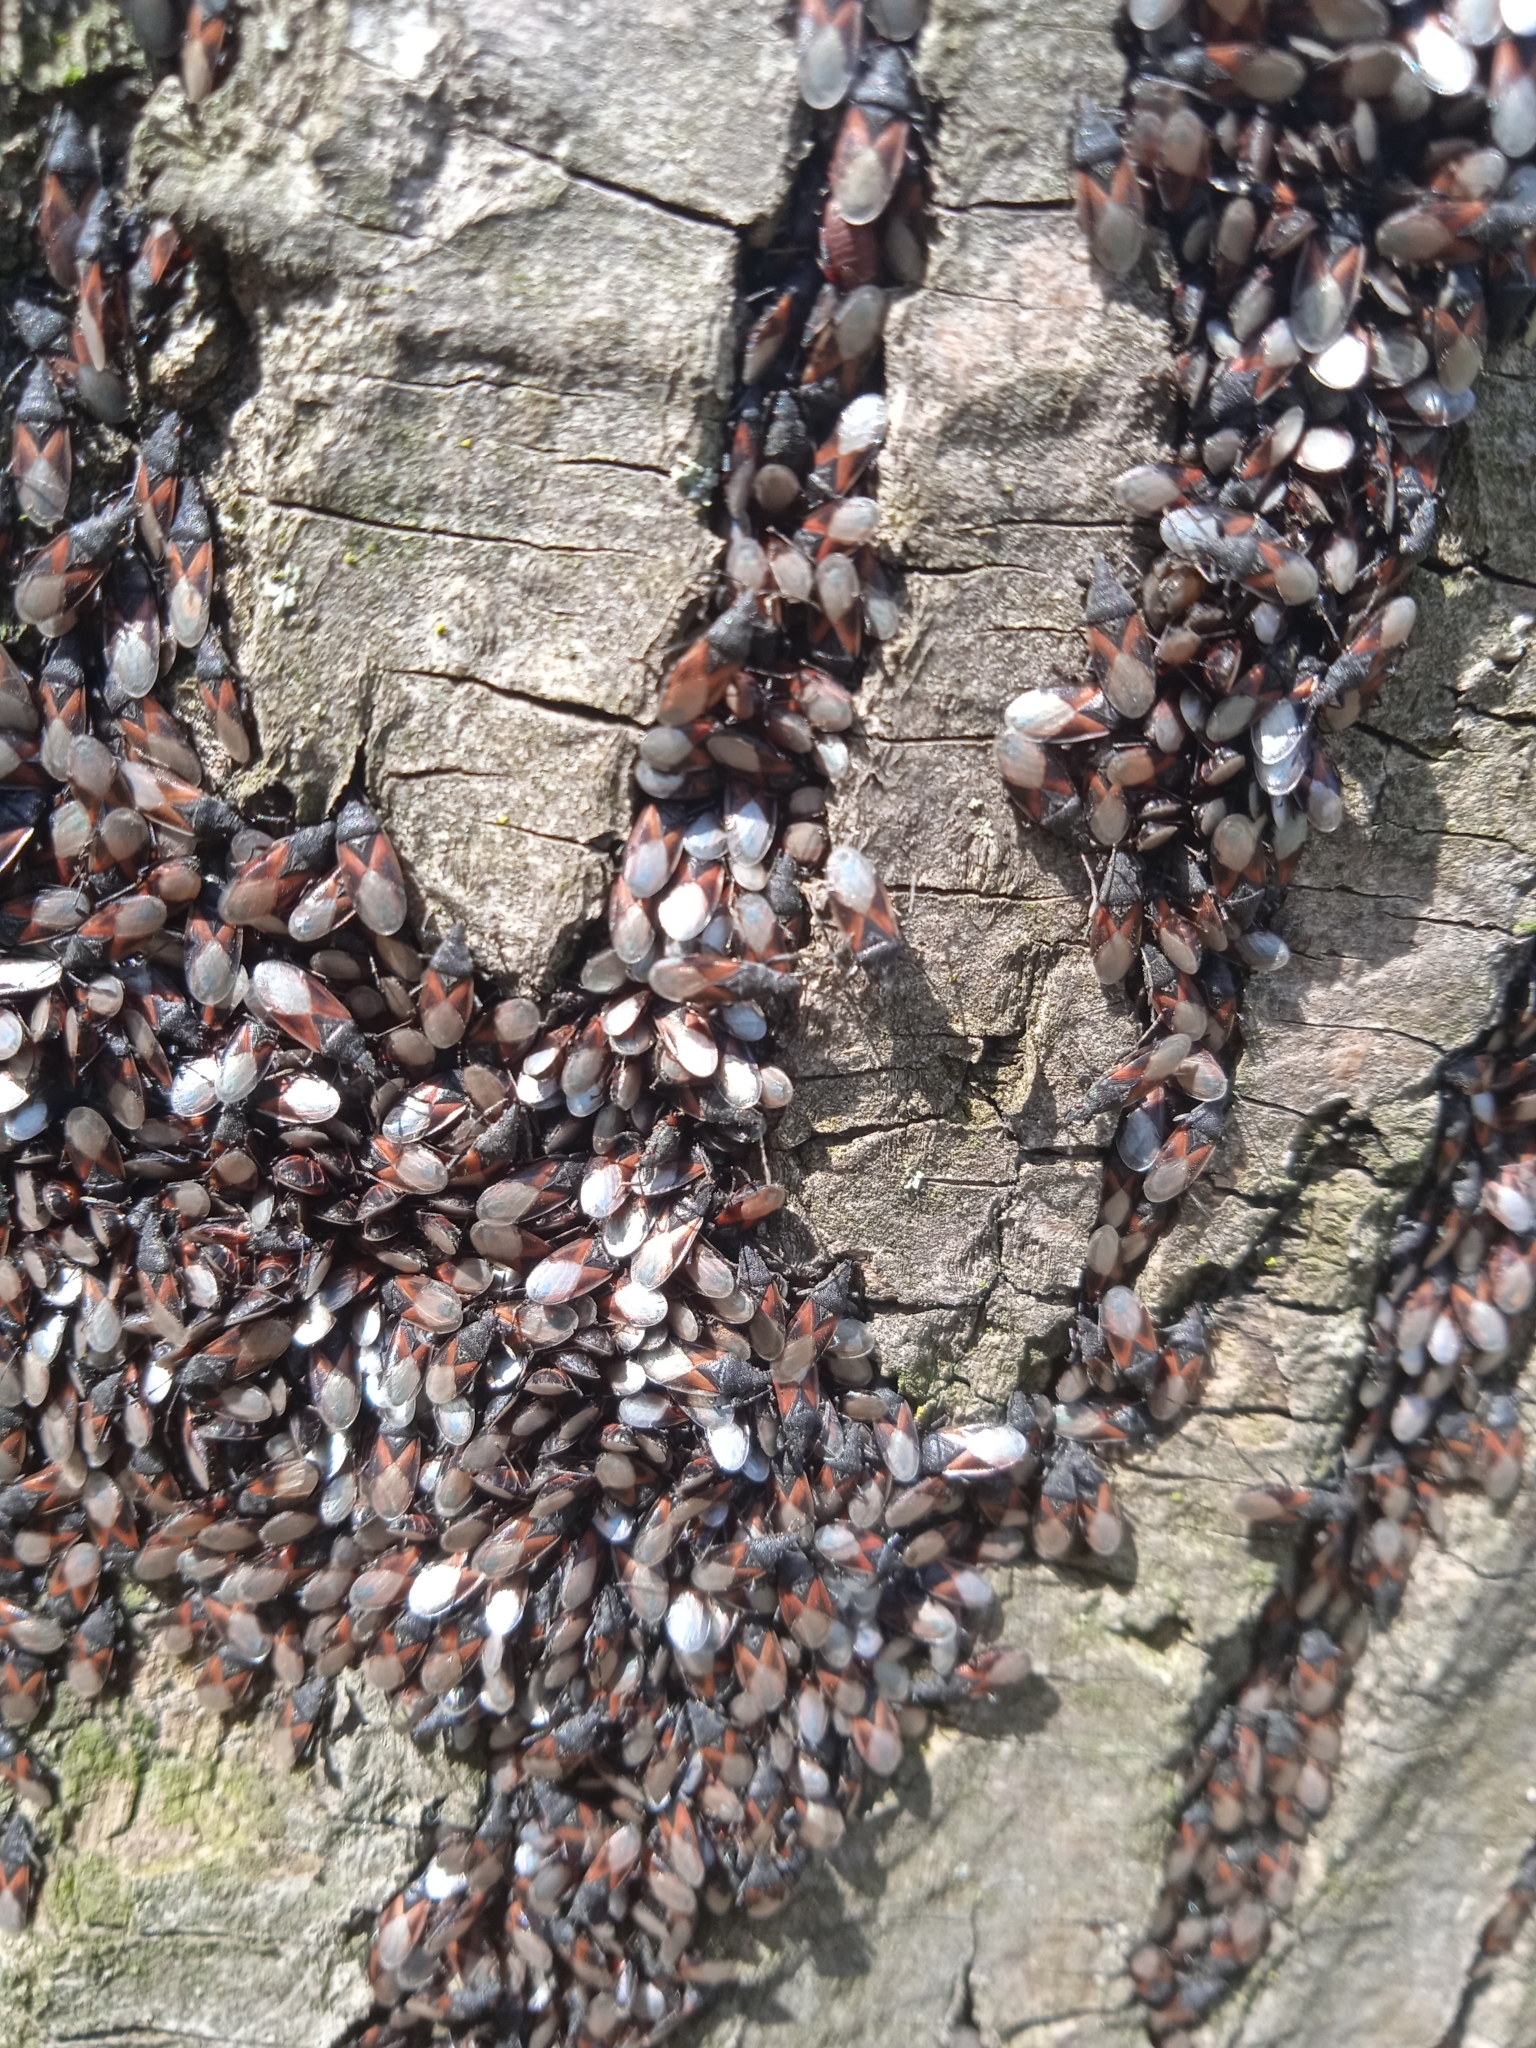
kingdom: Animalia
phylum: Arthropoda
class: Insecta
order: Hemiptera
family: Oxycarenidae
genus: Oxycarenus
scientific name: Oxycarenus lavaterae
